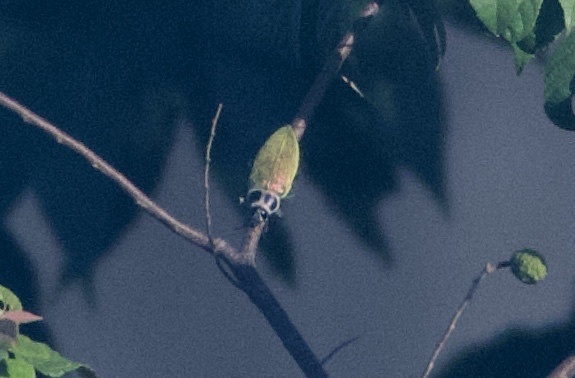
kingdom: Animalia
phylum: Arthropoda
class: Insecta
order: Coleoptera
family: Buprestidae
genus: Euchroma
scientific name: Euchroma giganteum
